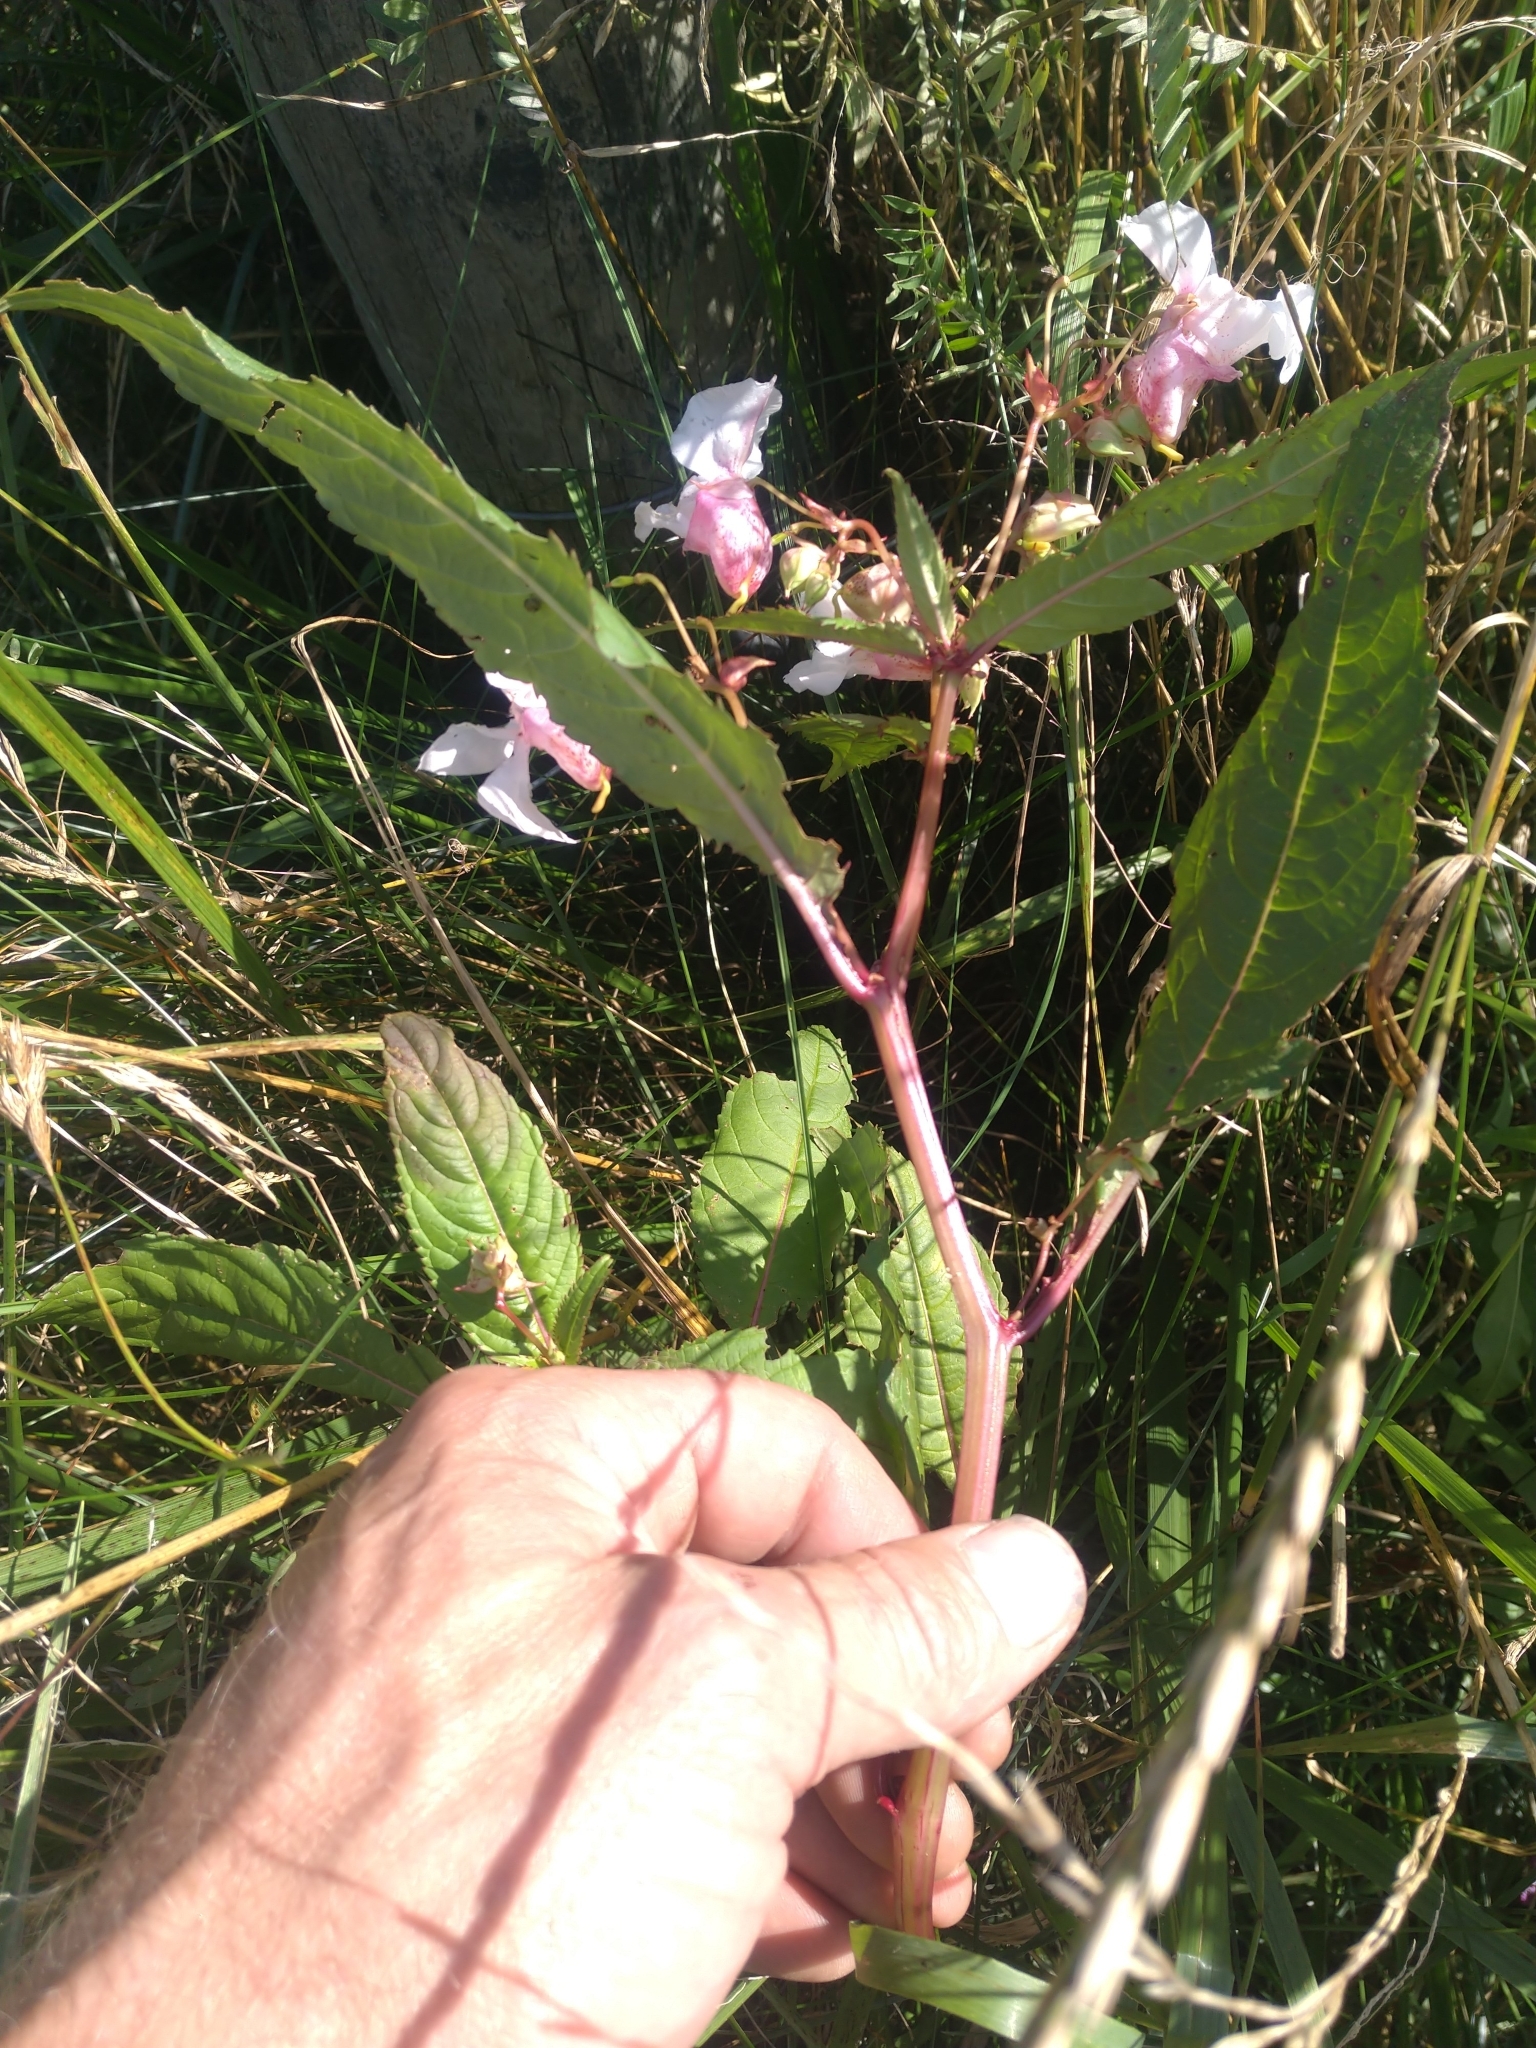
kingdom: Plantae
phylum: Tracheophyta
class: Magnoliopsida
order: Ericales
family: Balsaminaceae
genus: Impatiens
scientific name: Impatiens glandulifera
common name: Himalayan balsam
